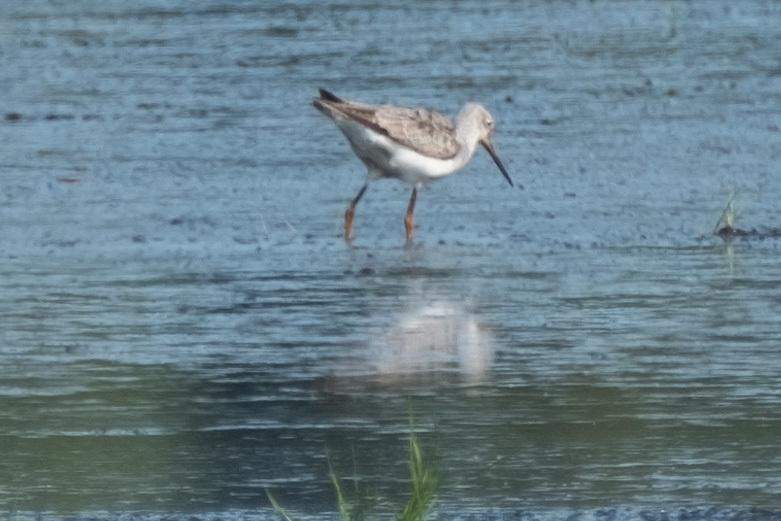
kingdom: Animalia
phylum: Chordata
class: Aves
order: Charadriiformes
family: Scolopacidae
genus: Tringa
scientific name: Tringa melanoleuca
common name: Greater yellowlegs
